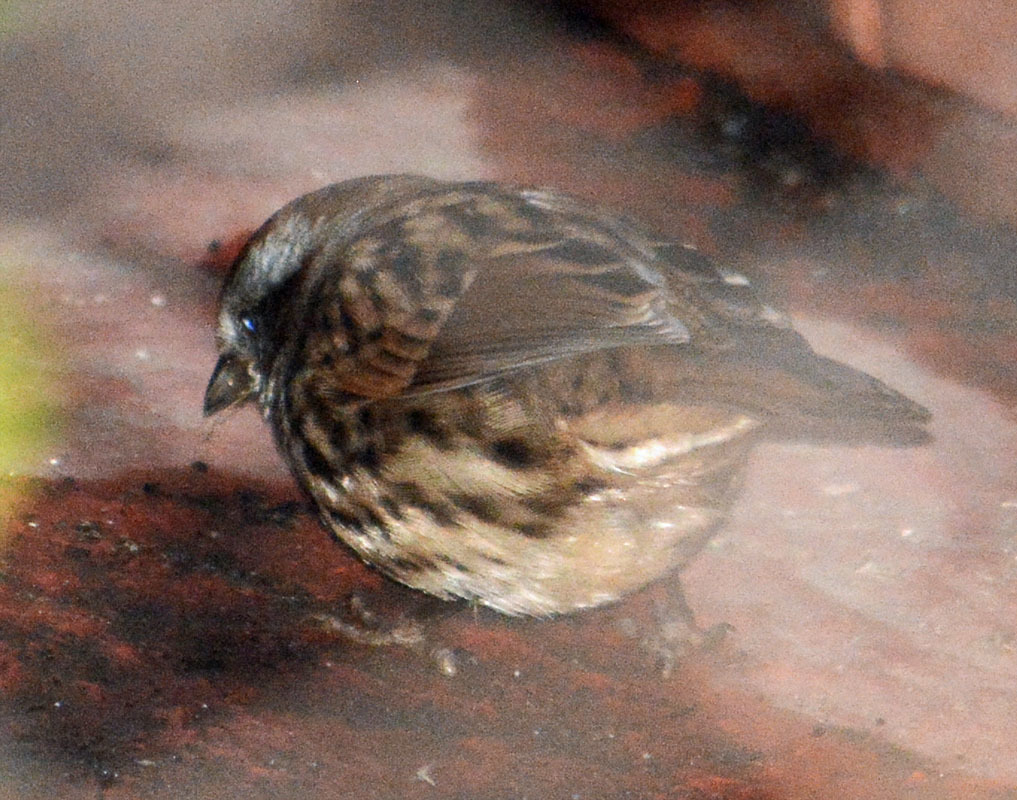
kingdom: Animalia
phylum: Chordata
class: Aves
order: Passeriformes
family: Passerellidae
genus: Melospiza
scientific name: Melospiza melodia
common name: Song sparrow
